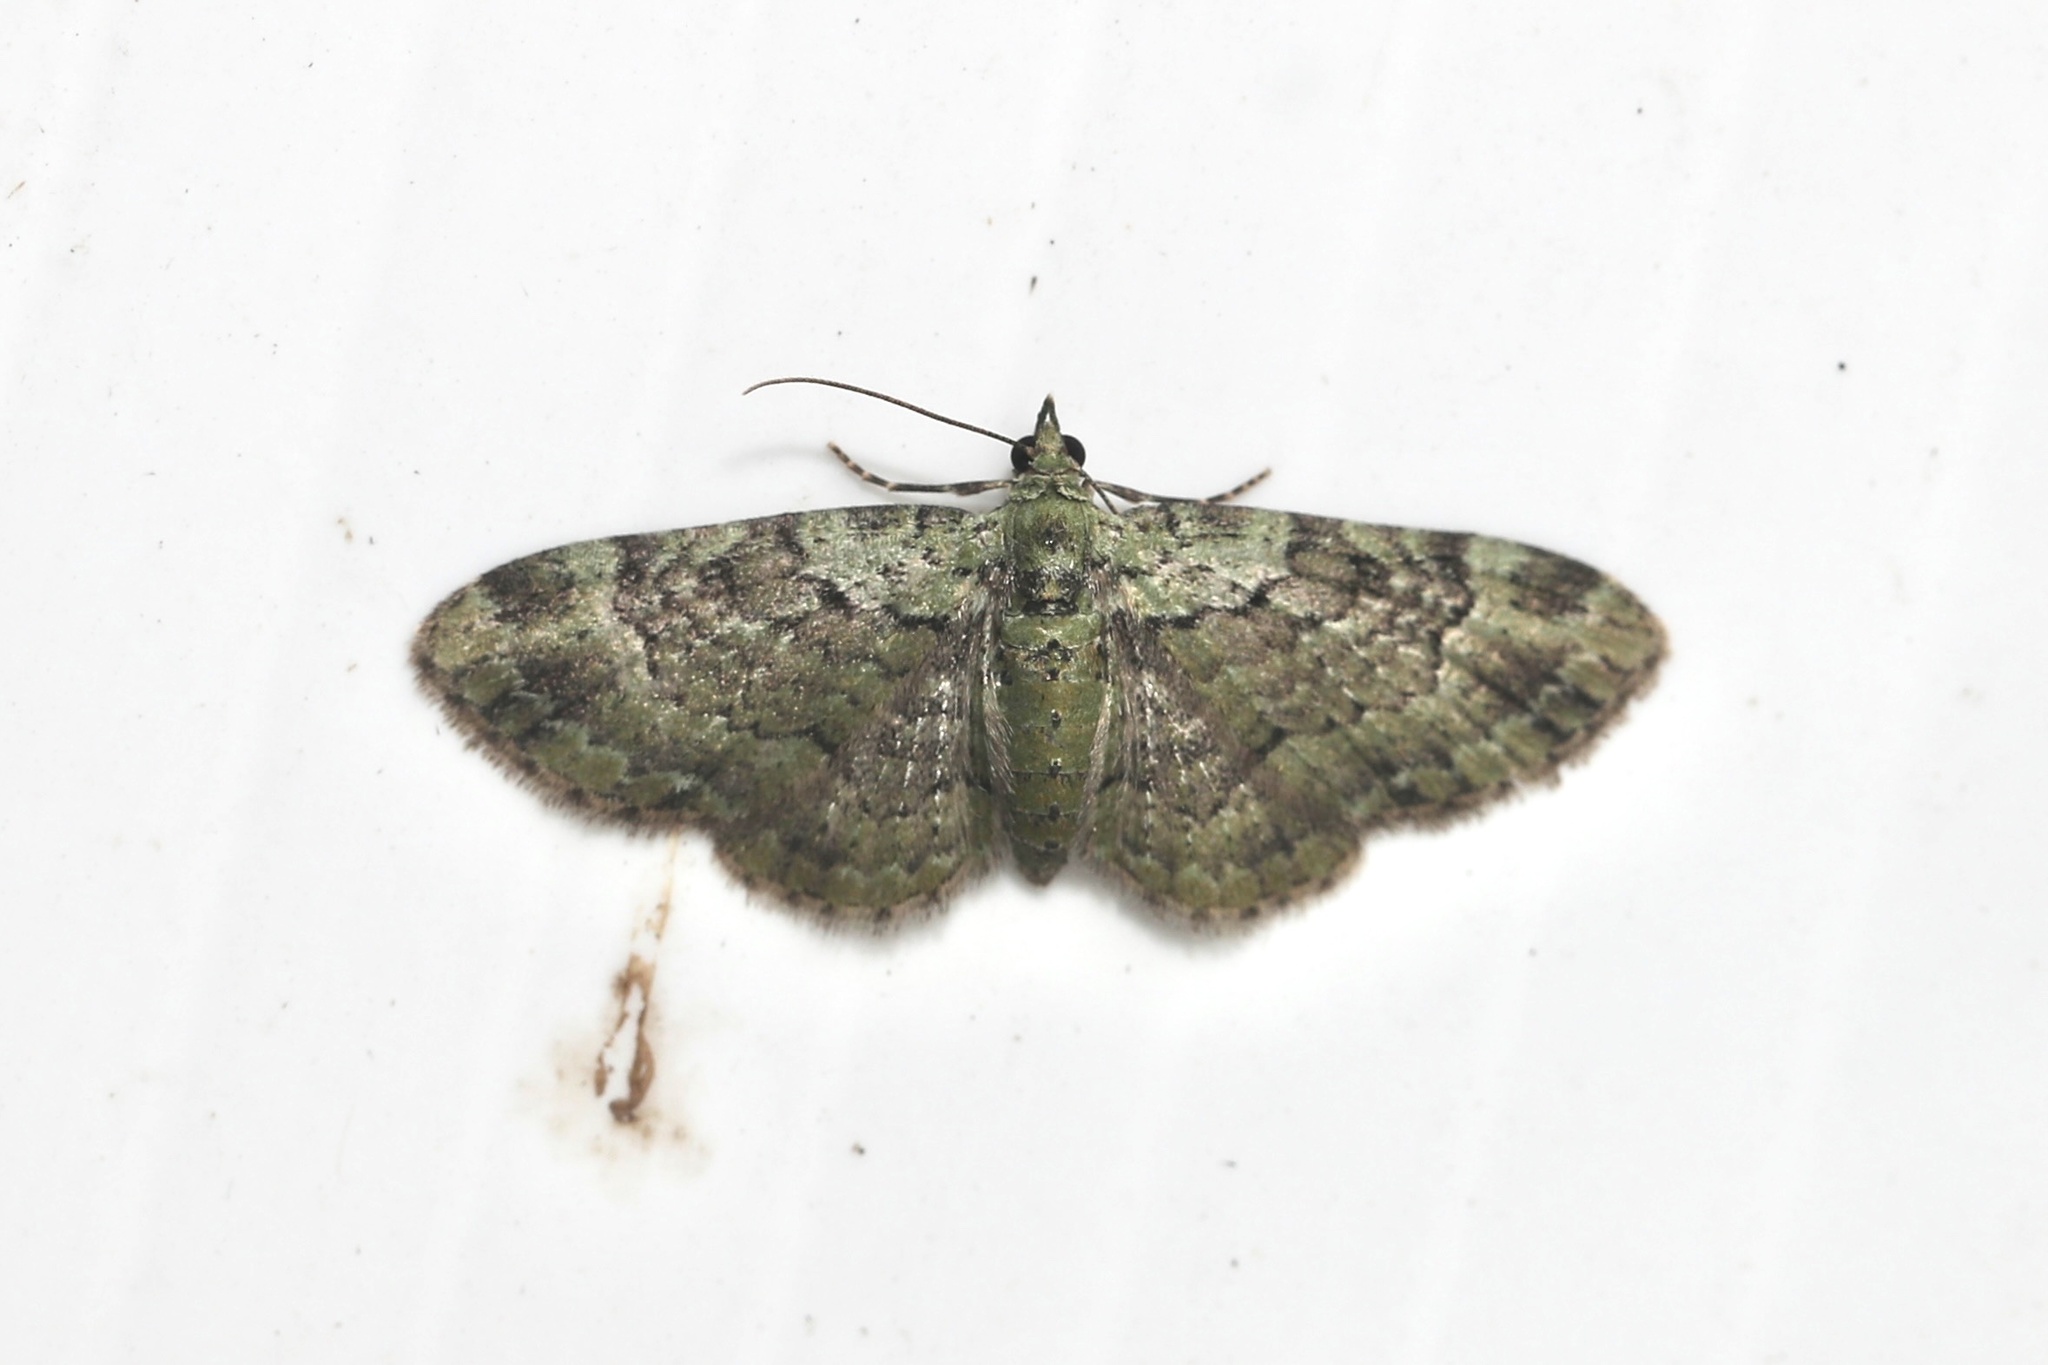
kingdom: Animalia
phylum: Arthropoda
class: Insecta
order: Lepidoptera
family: Geometridae
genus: Pasiphila
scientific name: Pasiphila rectangulata
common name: Green pug
